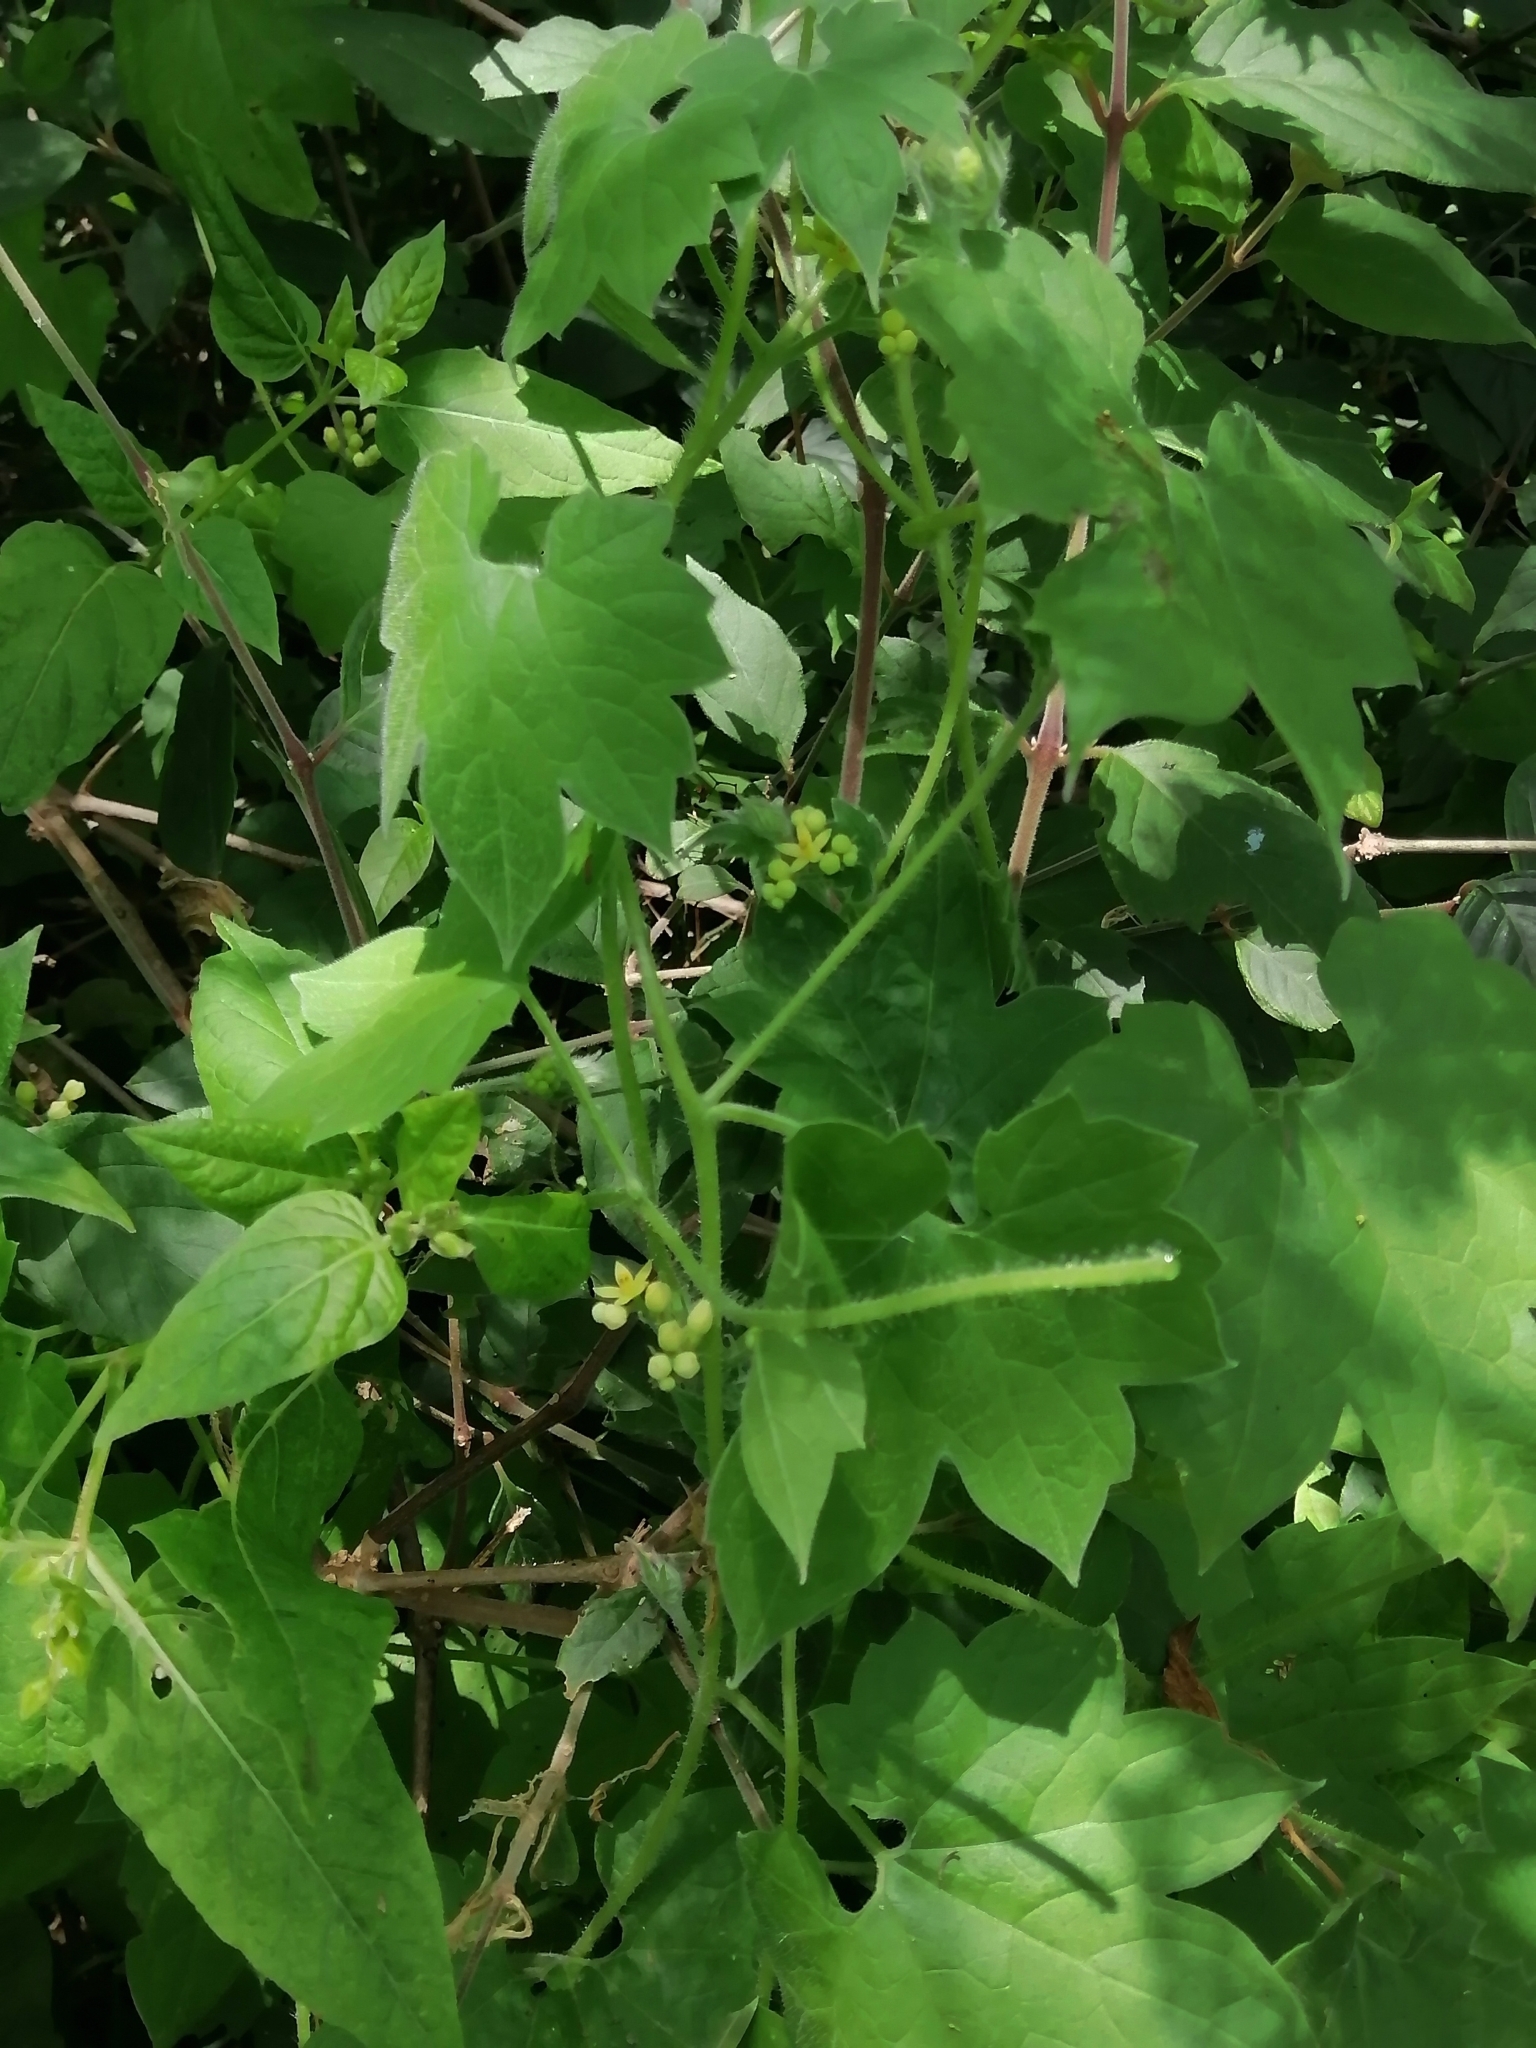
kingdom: Plantae
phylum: Tracheophyta
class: Magnoliopsida
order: Cornales
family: Loasaceae
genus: Gronovia
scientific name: Gronovia scandens
